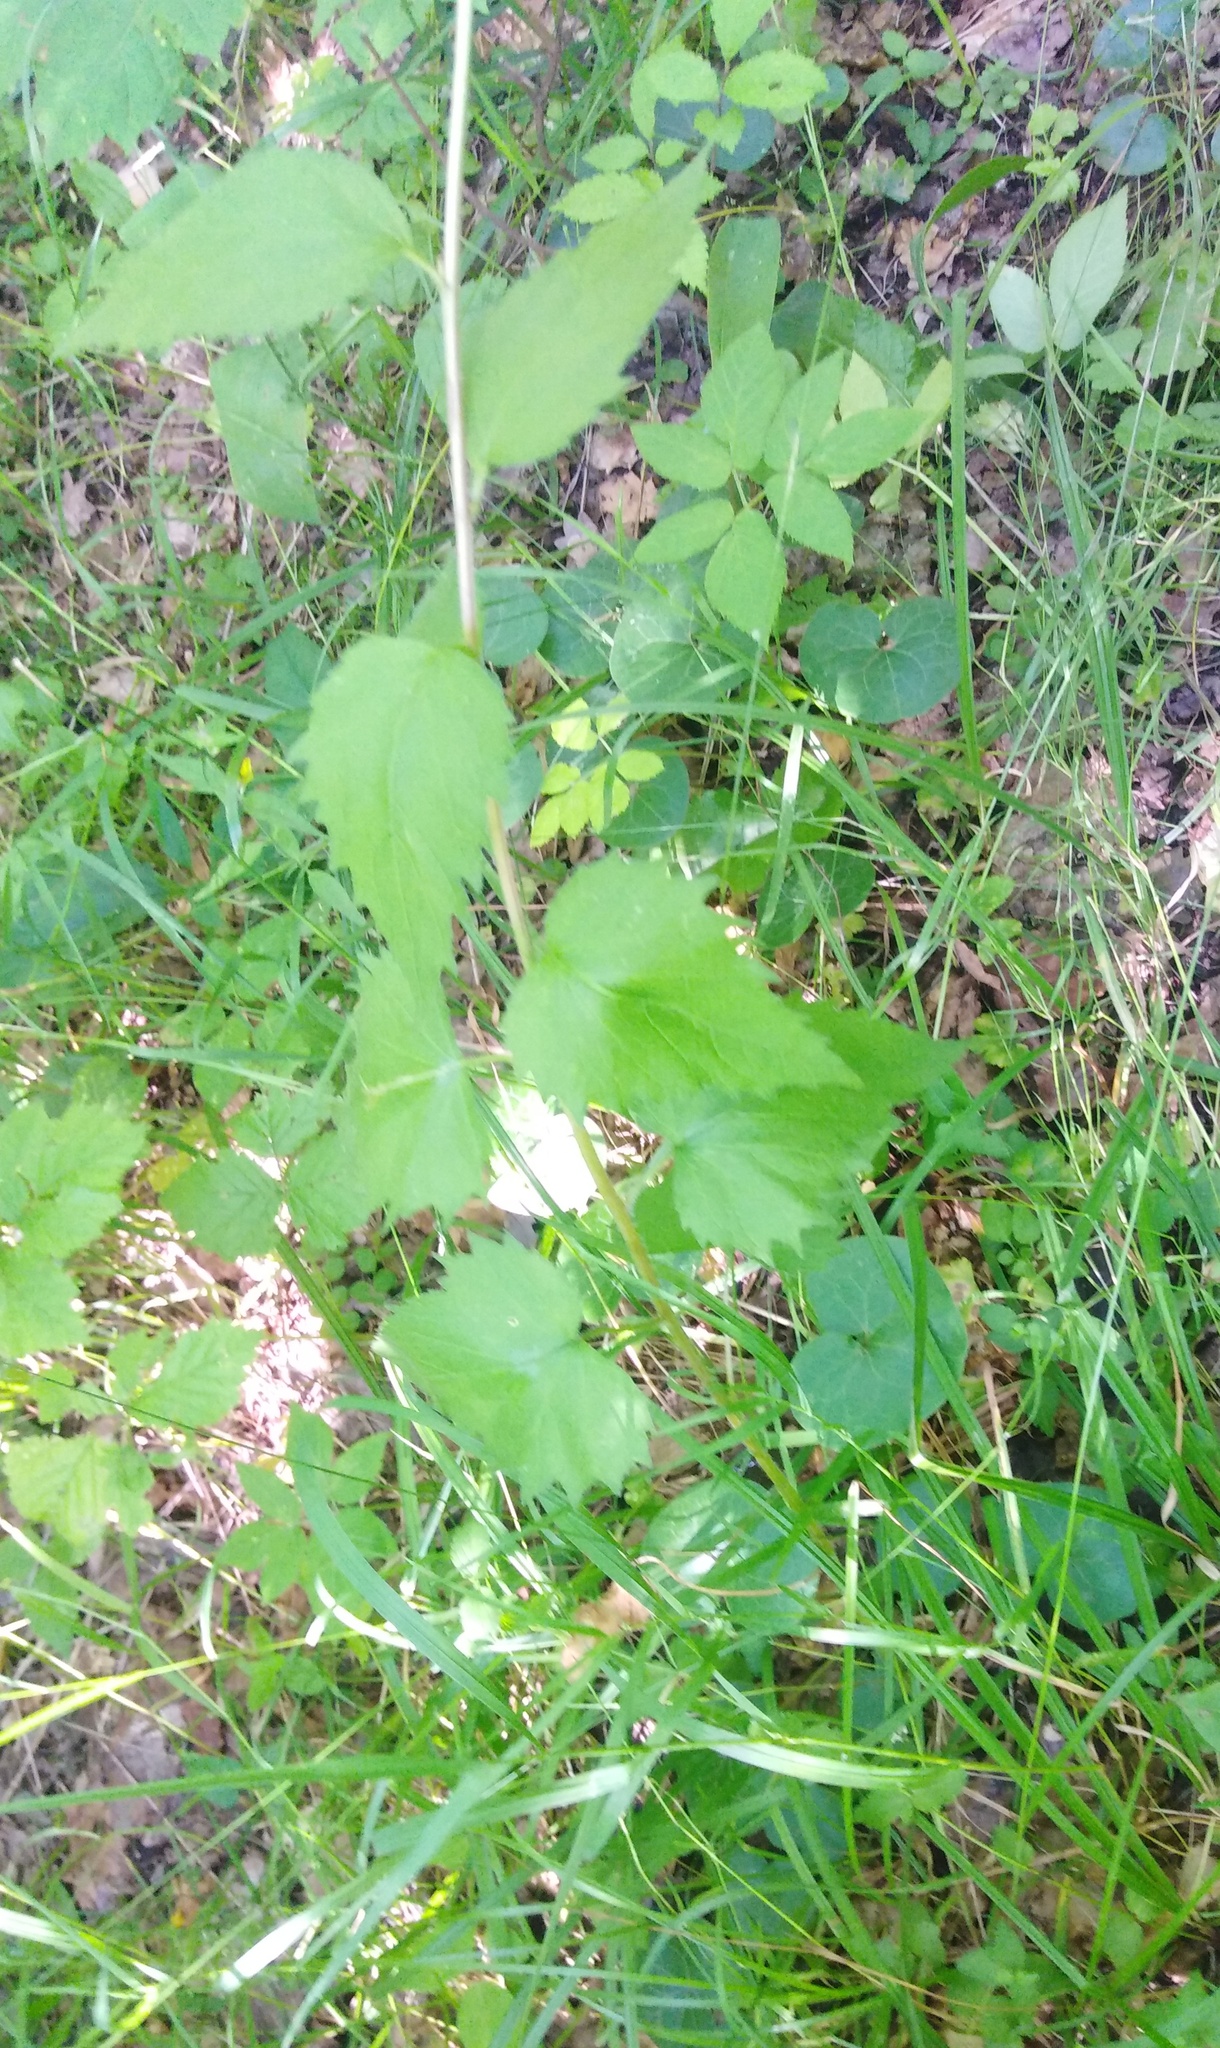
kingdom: Plantae
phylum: Tracheophyta
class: Magnoliopsida
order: Asterales
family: Campanulaceae
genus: Campanula
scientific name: Campanula trachelium
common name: Nettle-leaved bellflower
